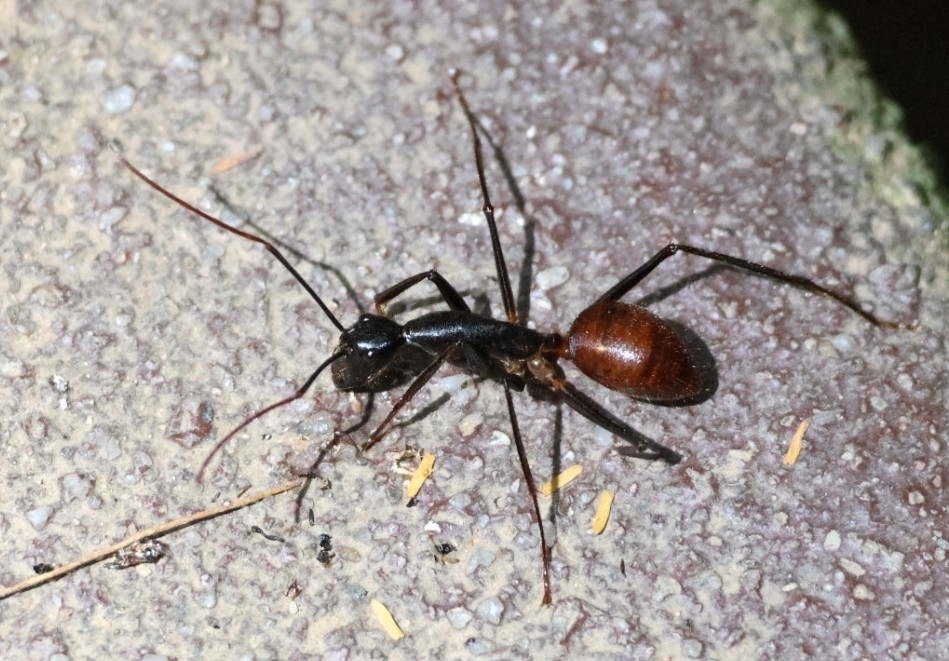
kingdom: Animalia
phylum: Arthropoda
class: Insecta
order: Hymenoptera
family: Formicidae
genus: Dinomyrmex
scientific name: Dinomyrmex
